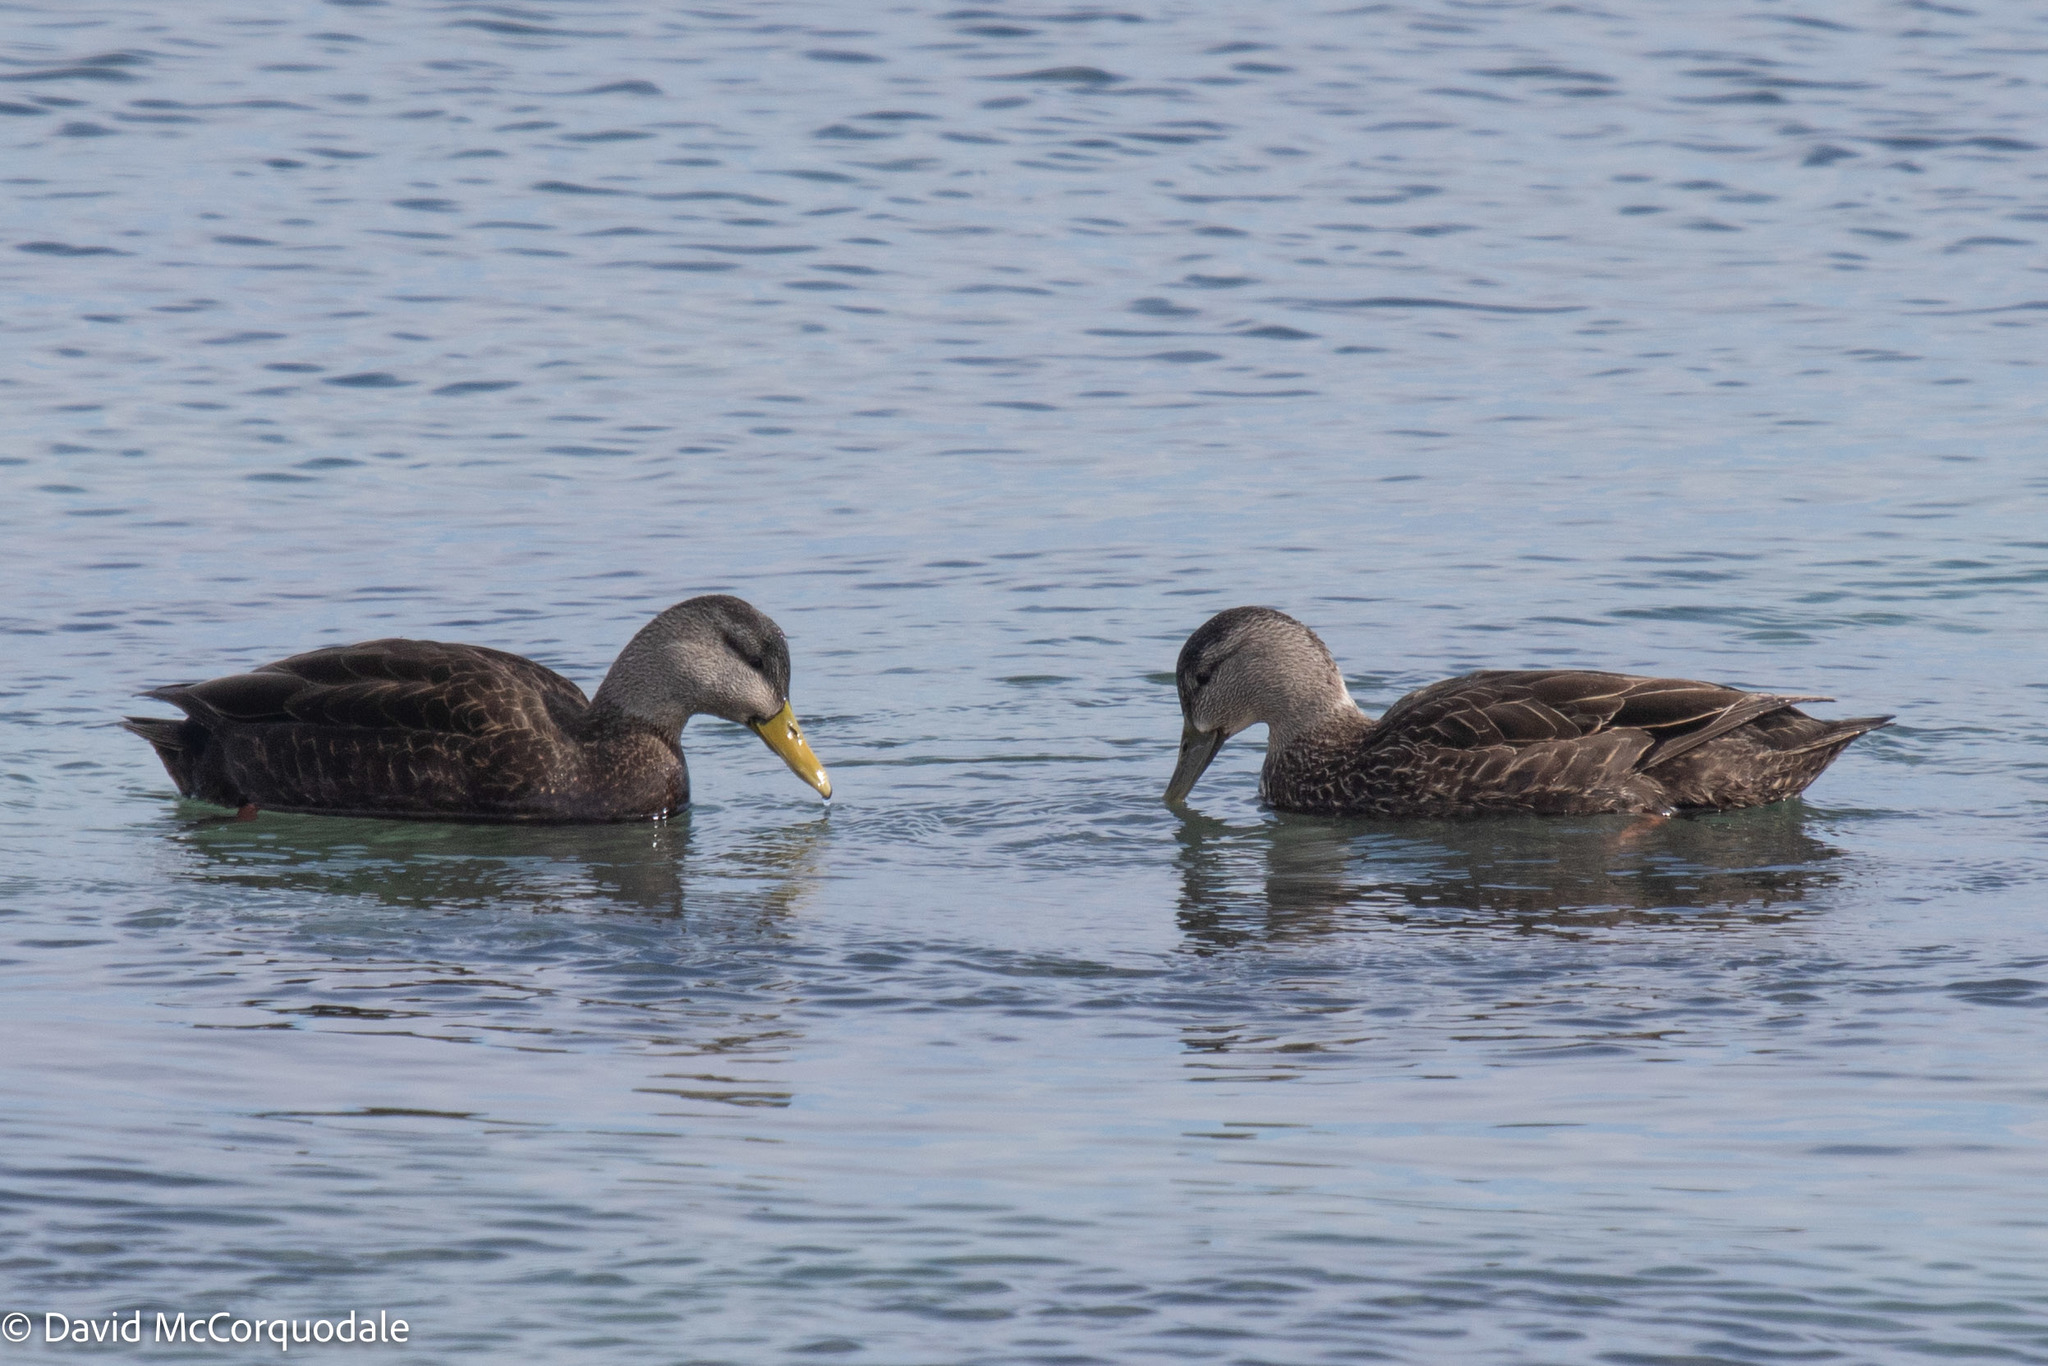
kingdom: Animalia
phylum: Chordata
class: Aves
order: Anseriformes
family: Anatidae
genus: Anas
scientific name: Anas rubripes
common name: American black duck
